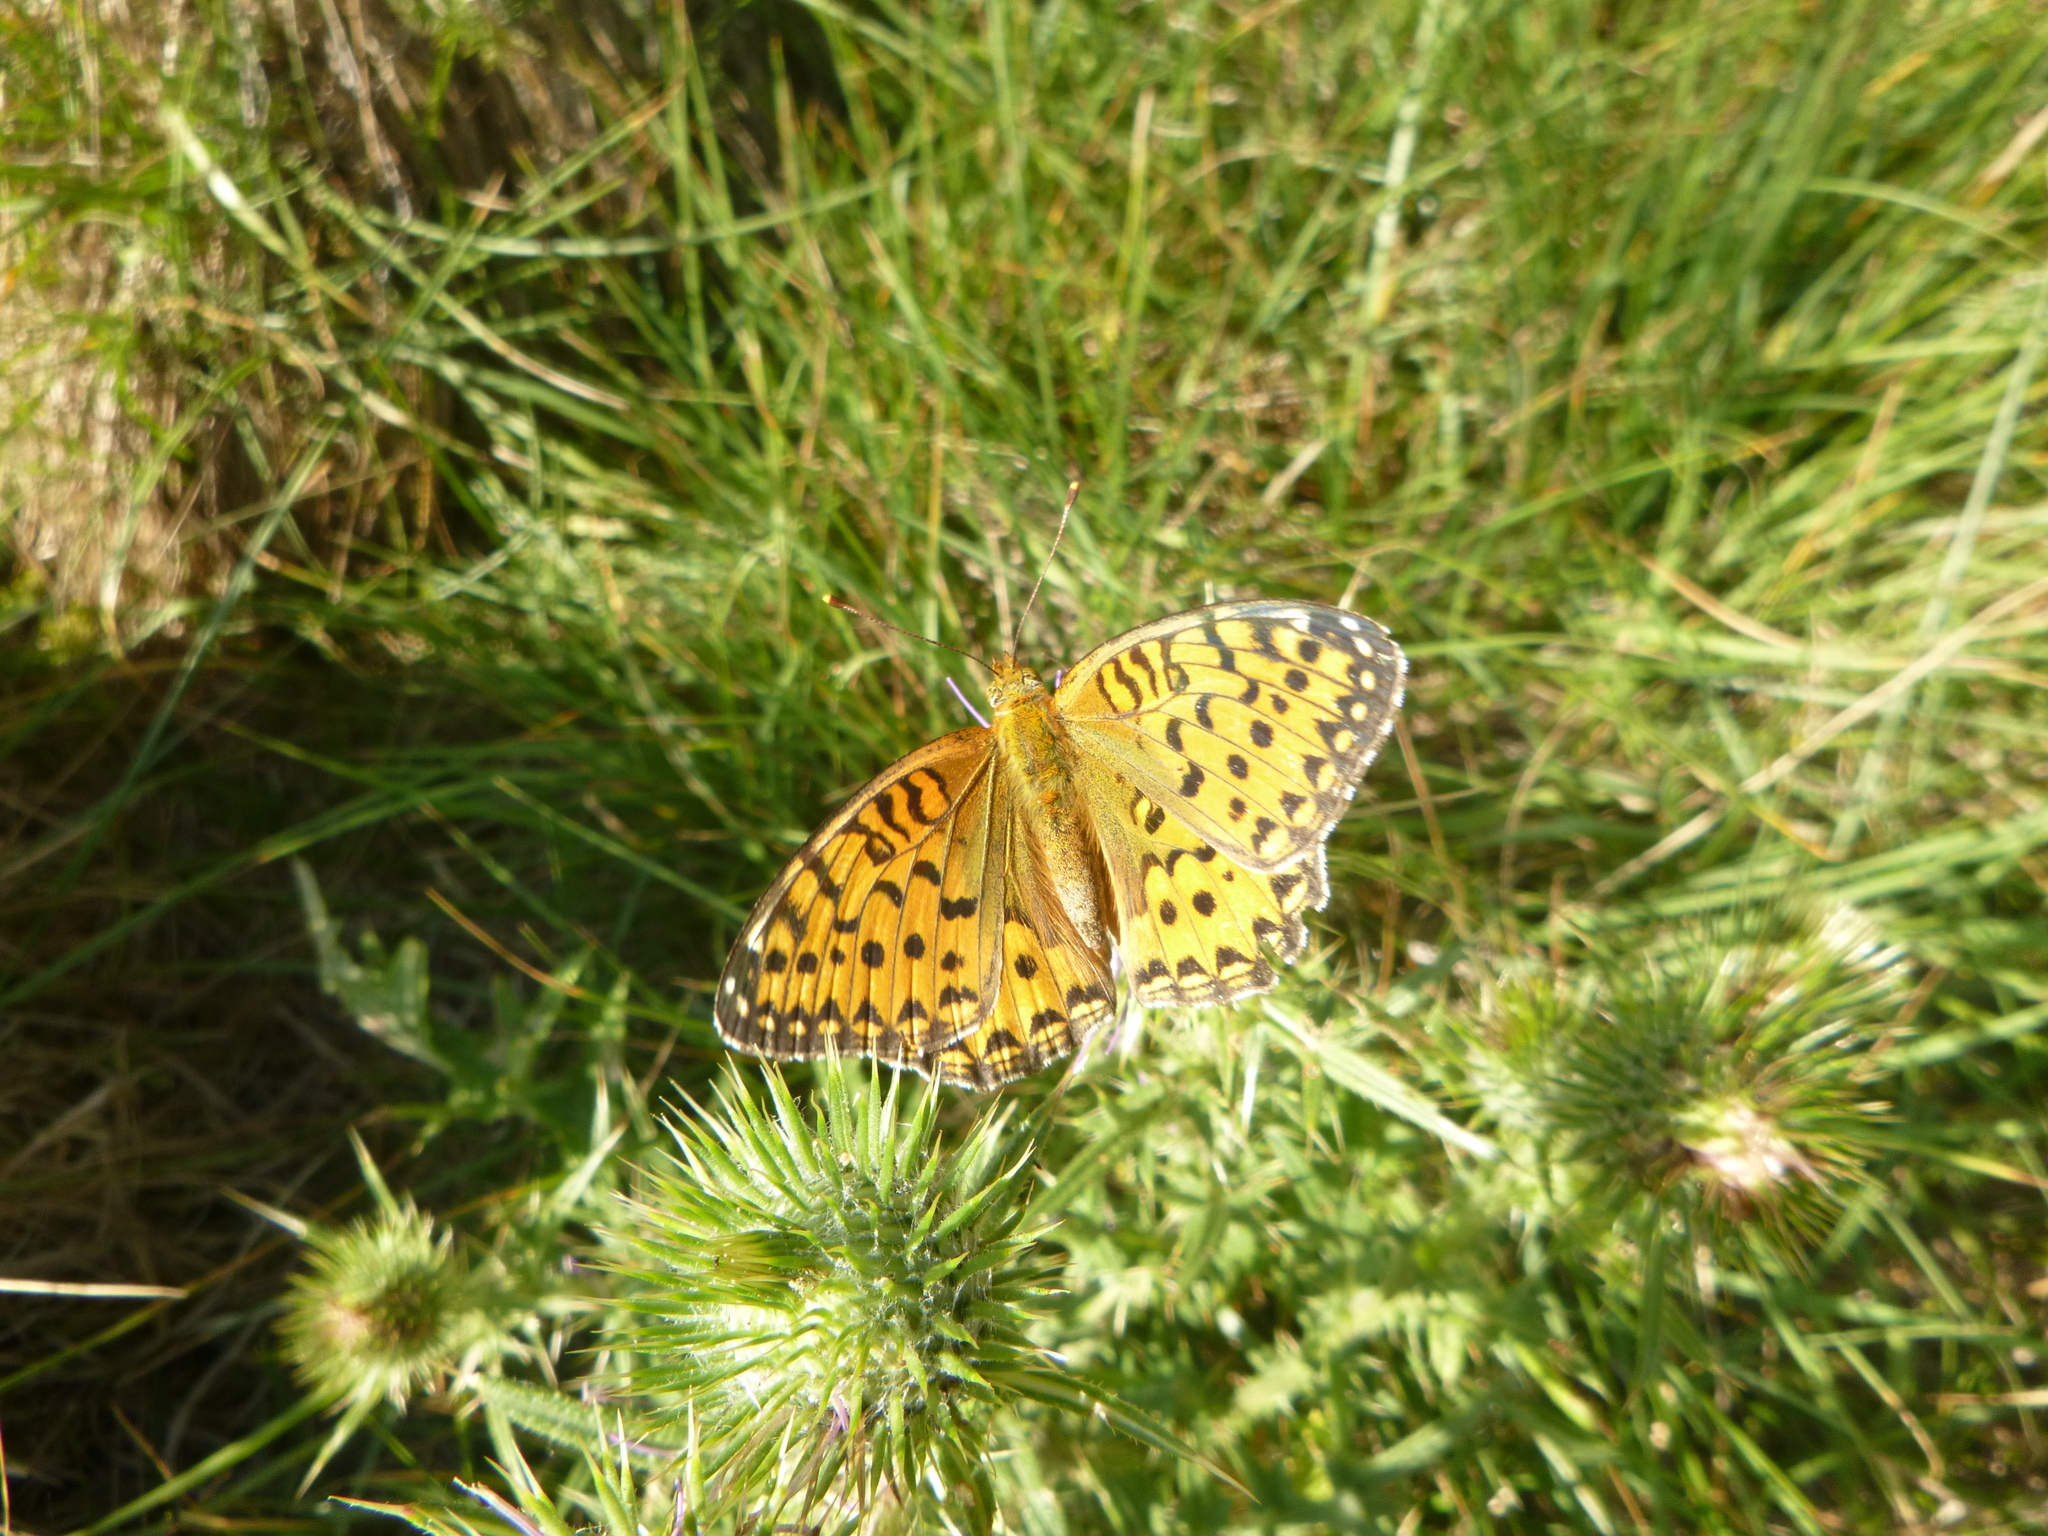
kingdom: Animalia
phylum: Arthropoda
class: Insecta
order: Lepidoptera
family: Nymphalidae
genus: Speyeria
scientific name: Speyeria aglaja
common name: Dark green fritillary
